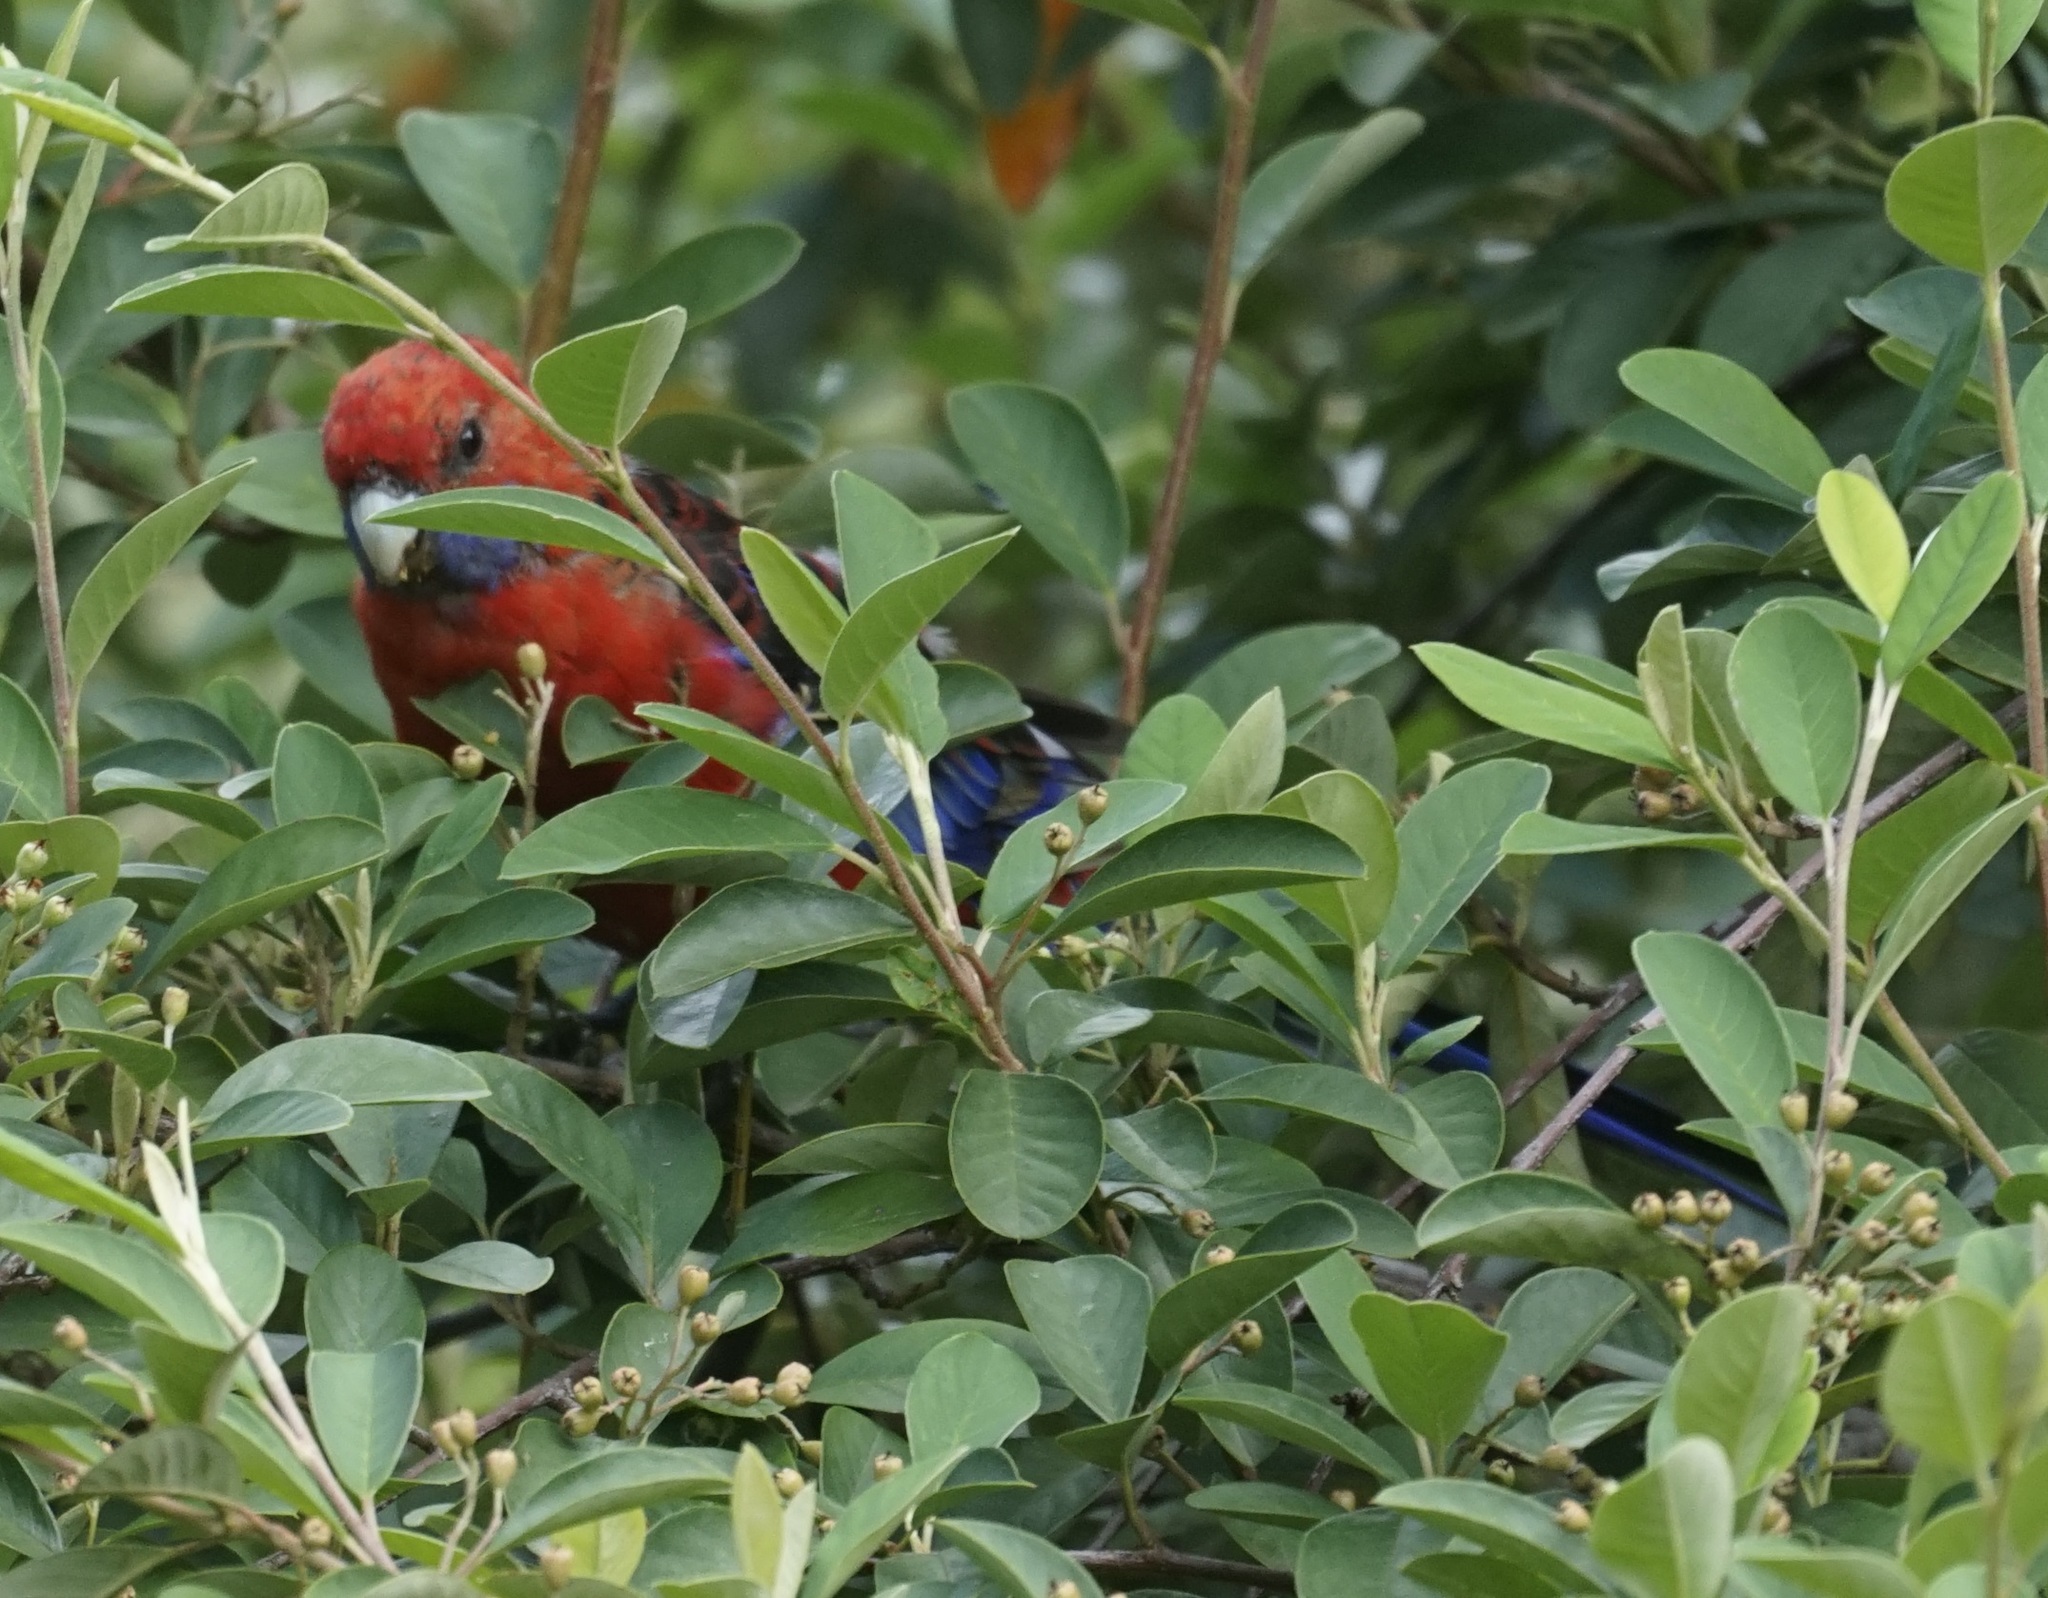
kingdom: Animalia
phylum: Chordata
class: Aves
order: Psittaciformes
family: Psittacidae
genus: Platycercus
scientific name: Platycercus elegans
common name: Crimson rosella
